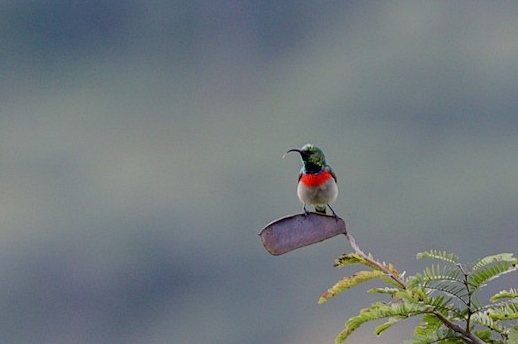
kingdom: Animalia
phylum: Chordata
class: Aves
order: Passeriformes
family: Nectariniidae
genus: Cinnyris
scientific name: Cinnyris manoensis
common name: Eastern miombo sunbird
